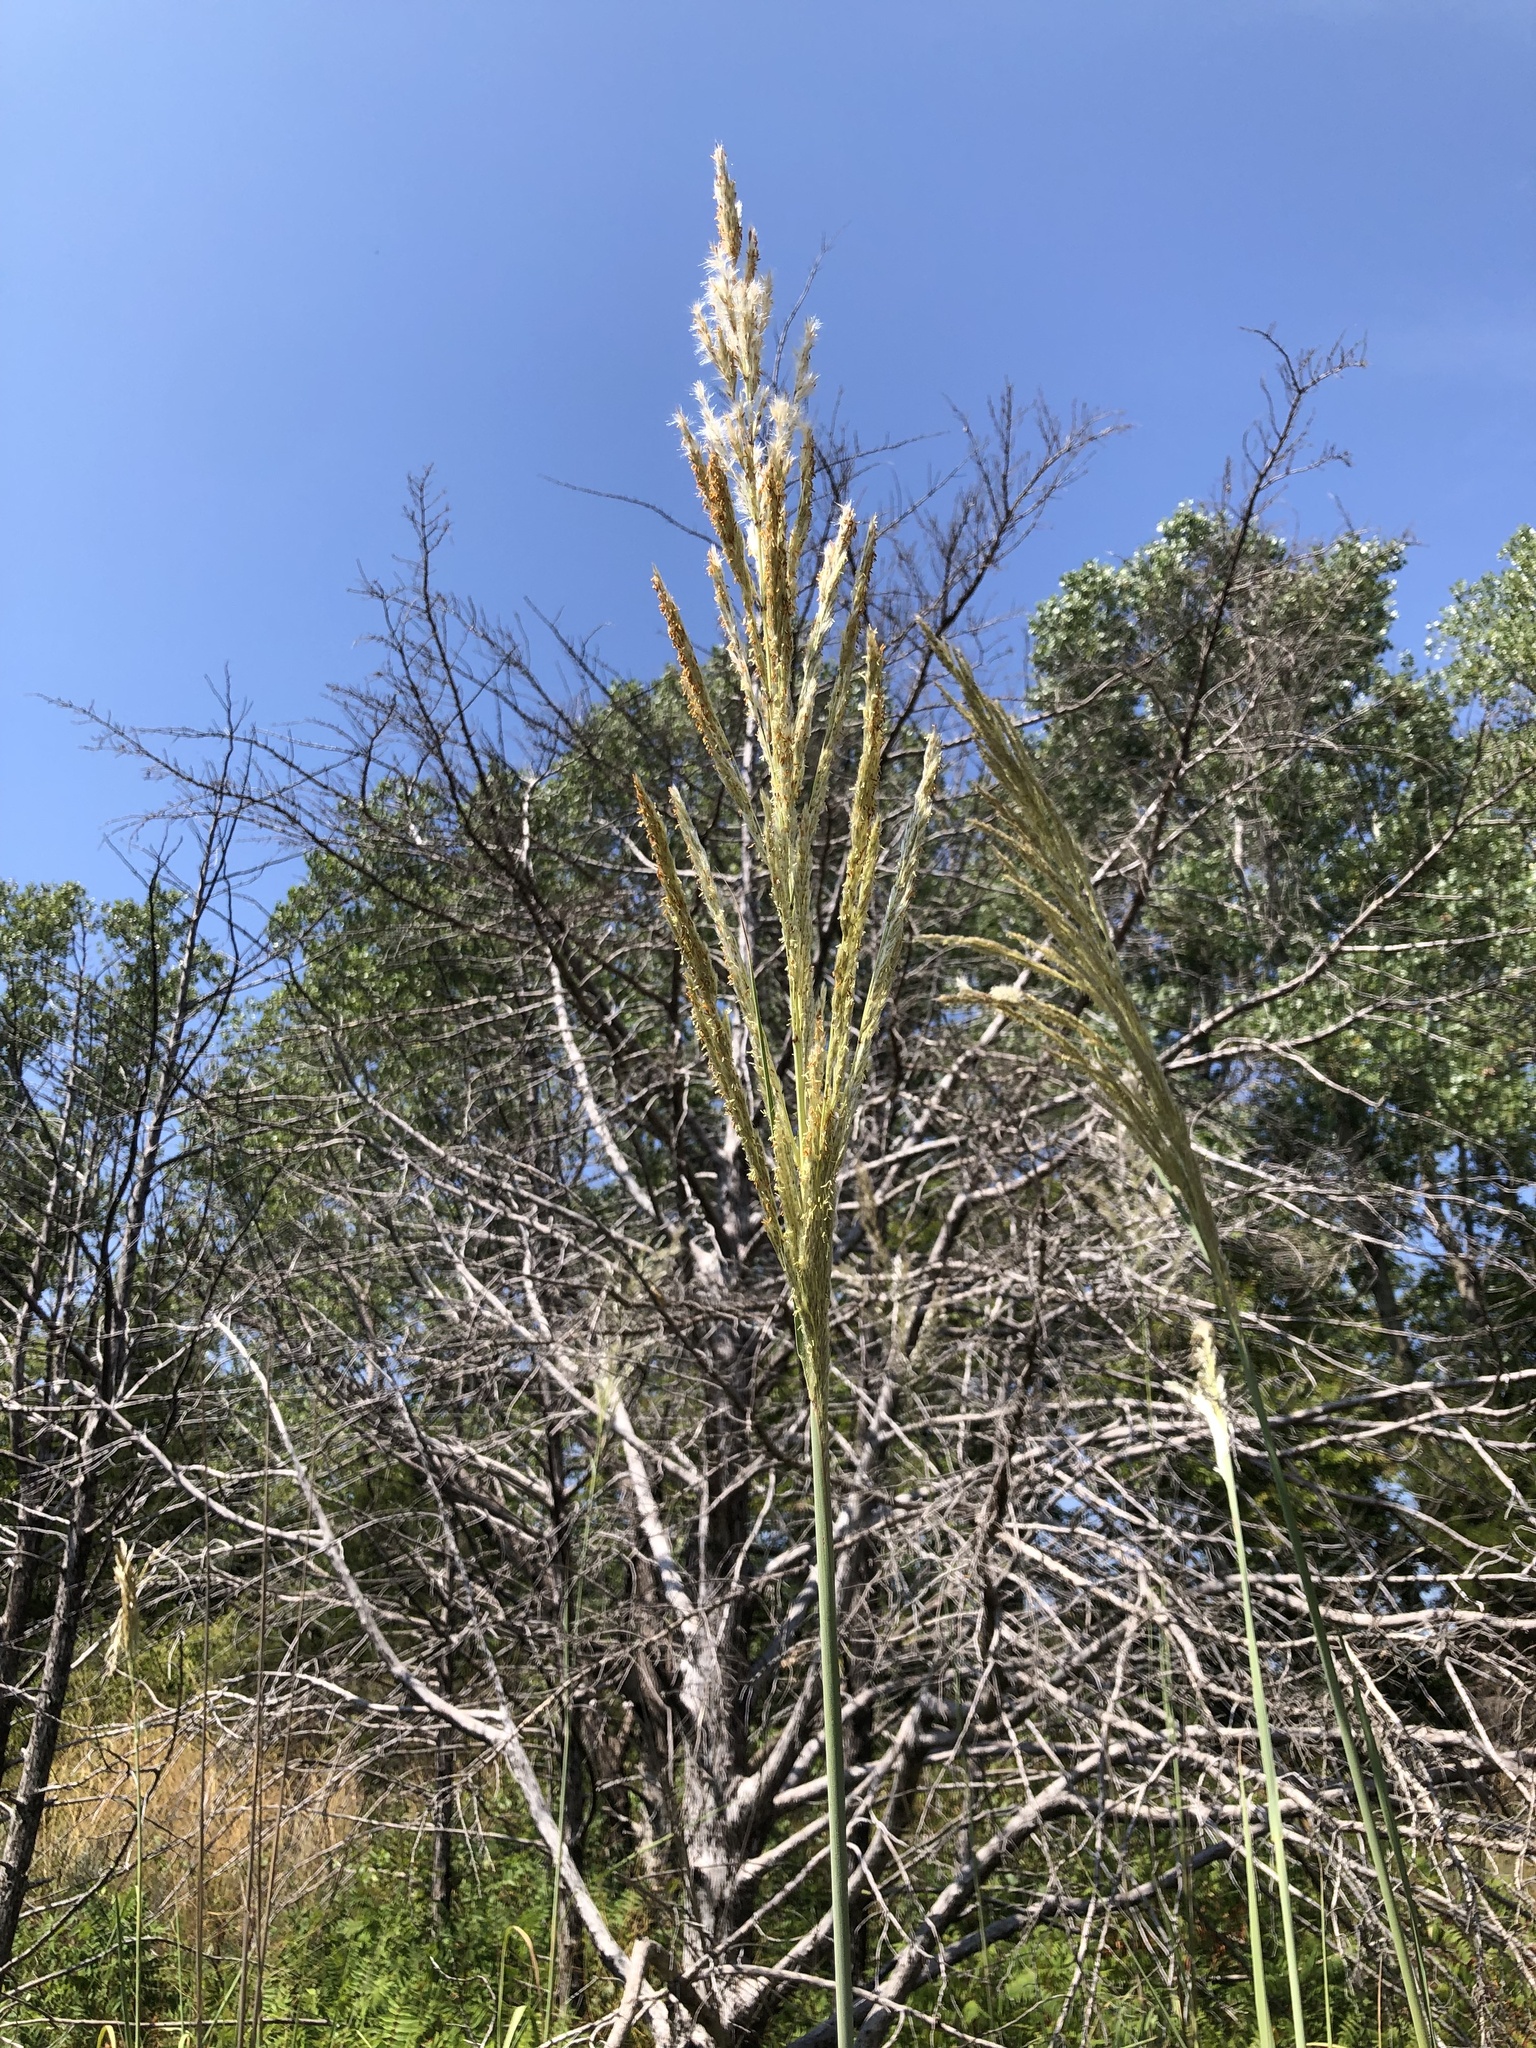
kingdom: Plantae
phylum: Tracheophyta
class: Liliopsida
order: Poales
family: Poaceae
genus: Tripidium
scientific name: Tripidium ravennae
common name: Ravenna grass
